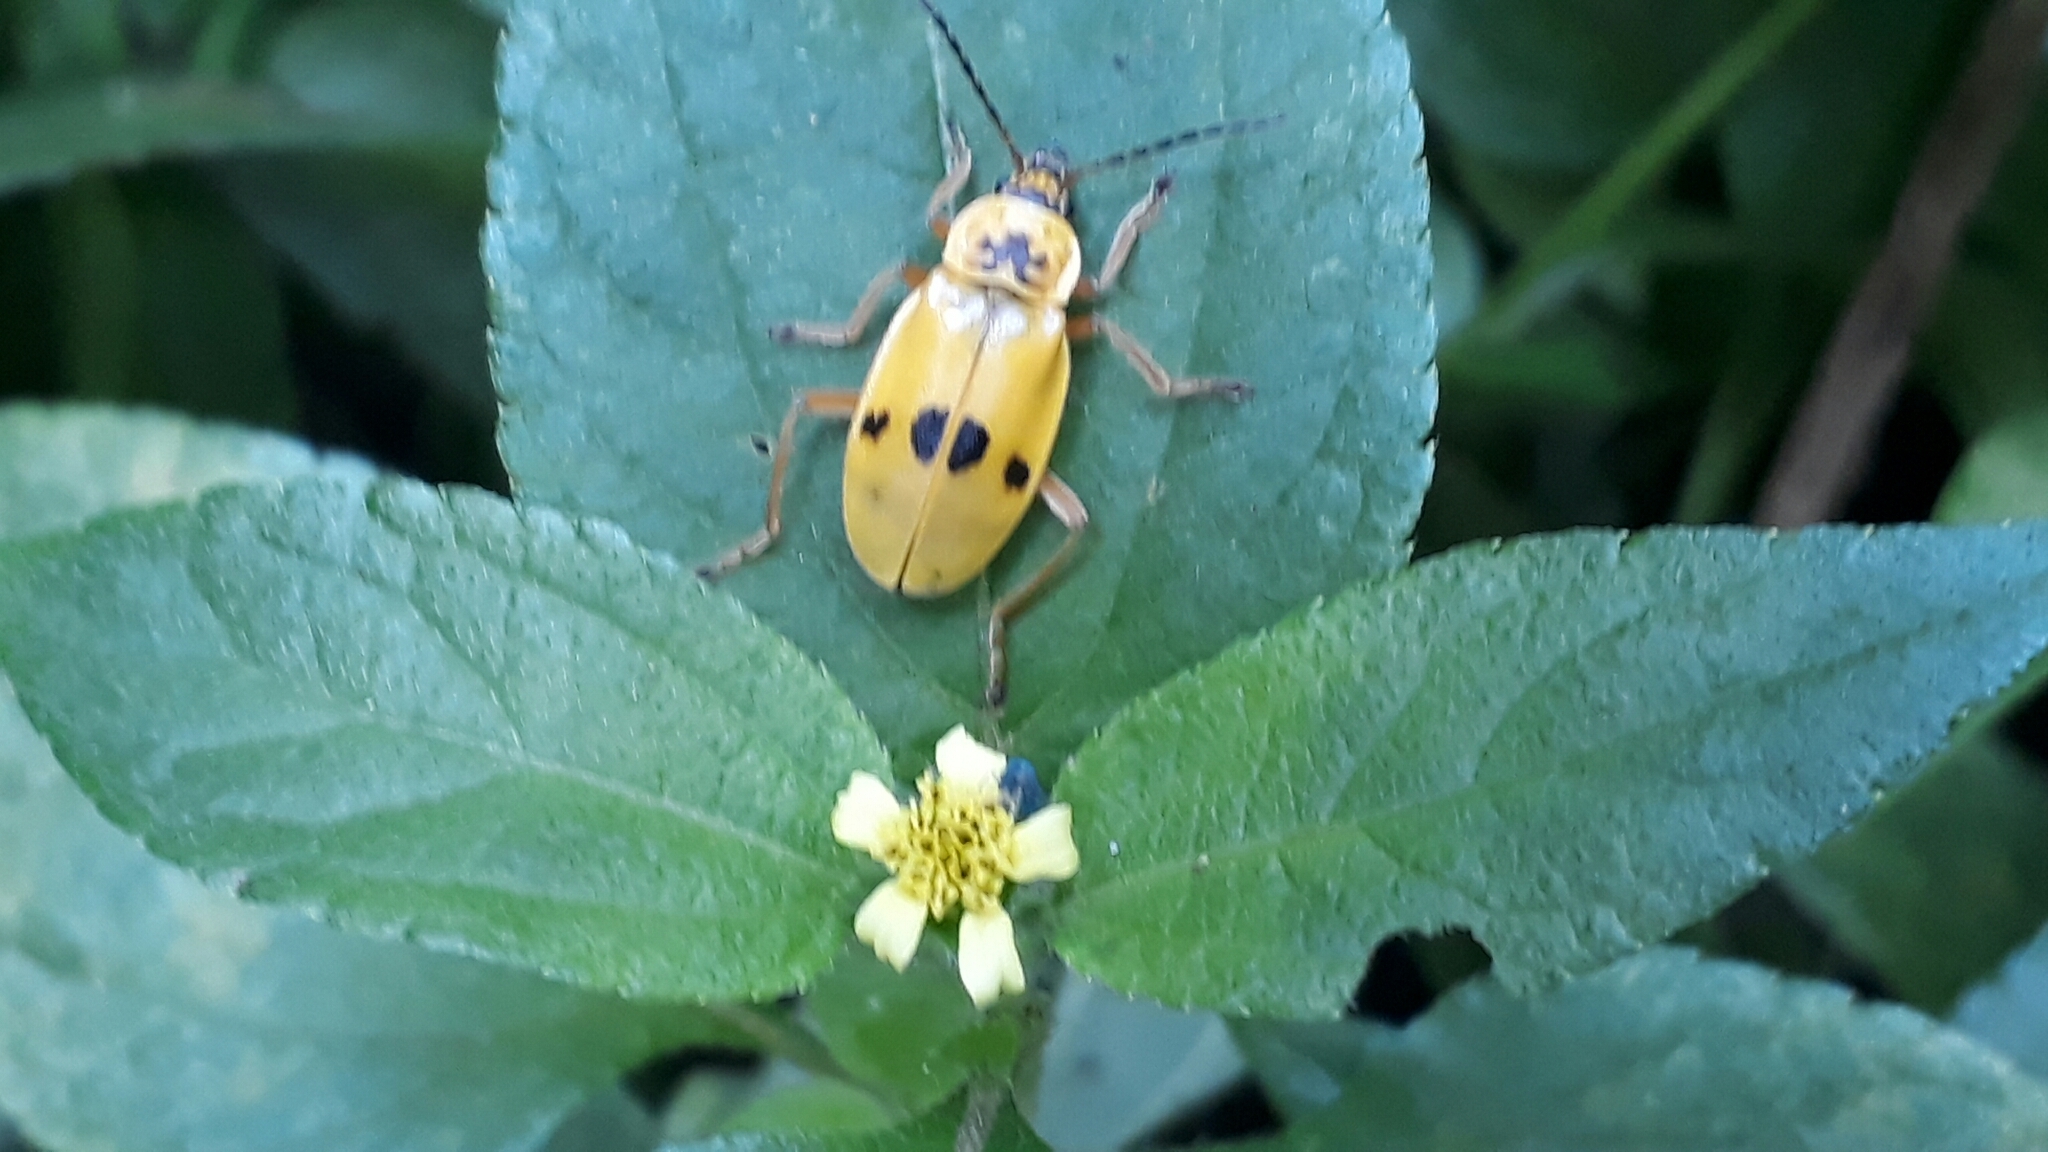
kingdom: Animalia
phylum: Arthropoda
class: Insecta
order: Coleoptera
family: Cantharidae
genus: Chauliognathus
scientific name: Chauliognathus
